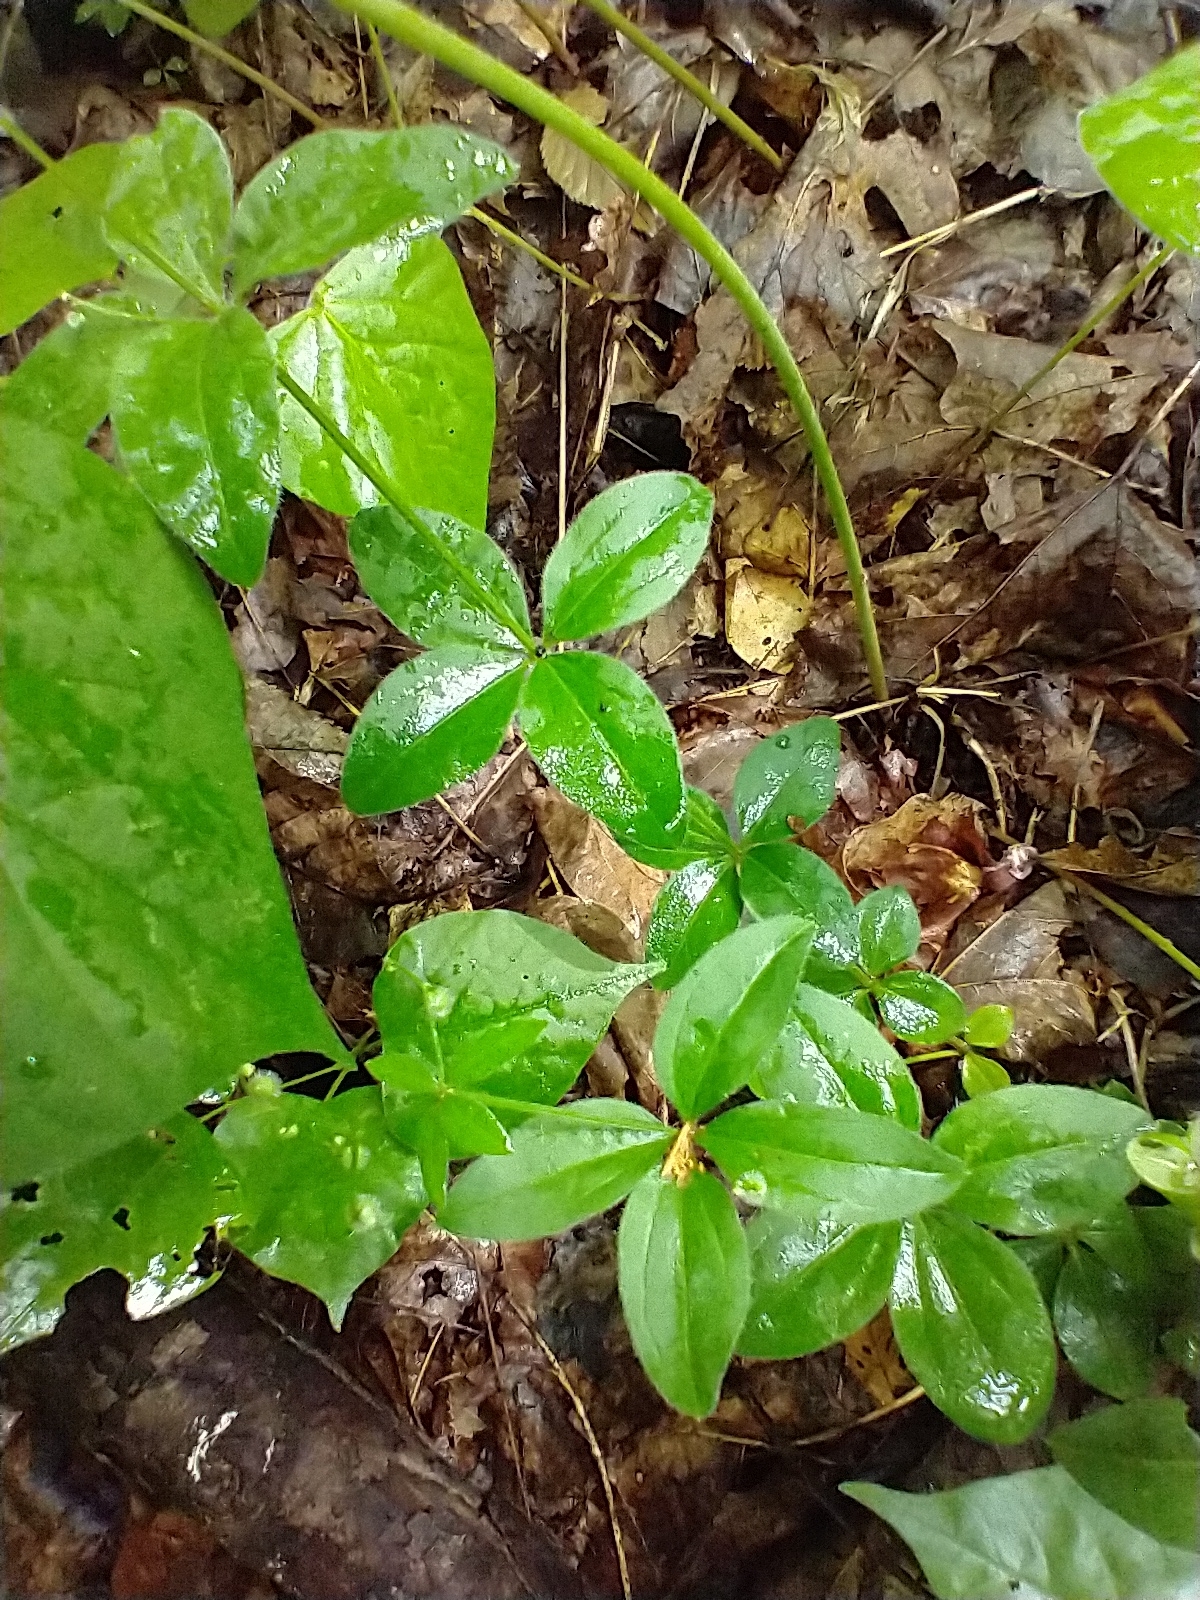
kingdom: Plantae
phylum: Tracheophyta
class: Magnoliopsida
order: Gentianales
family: Rubiaceae
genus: Galium
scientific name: Galium circaezans
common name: Forest bedstraw
